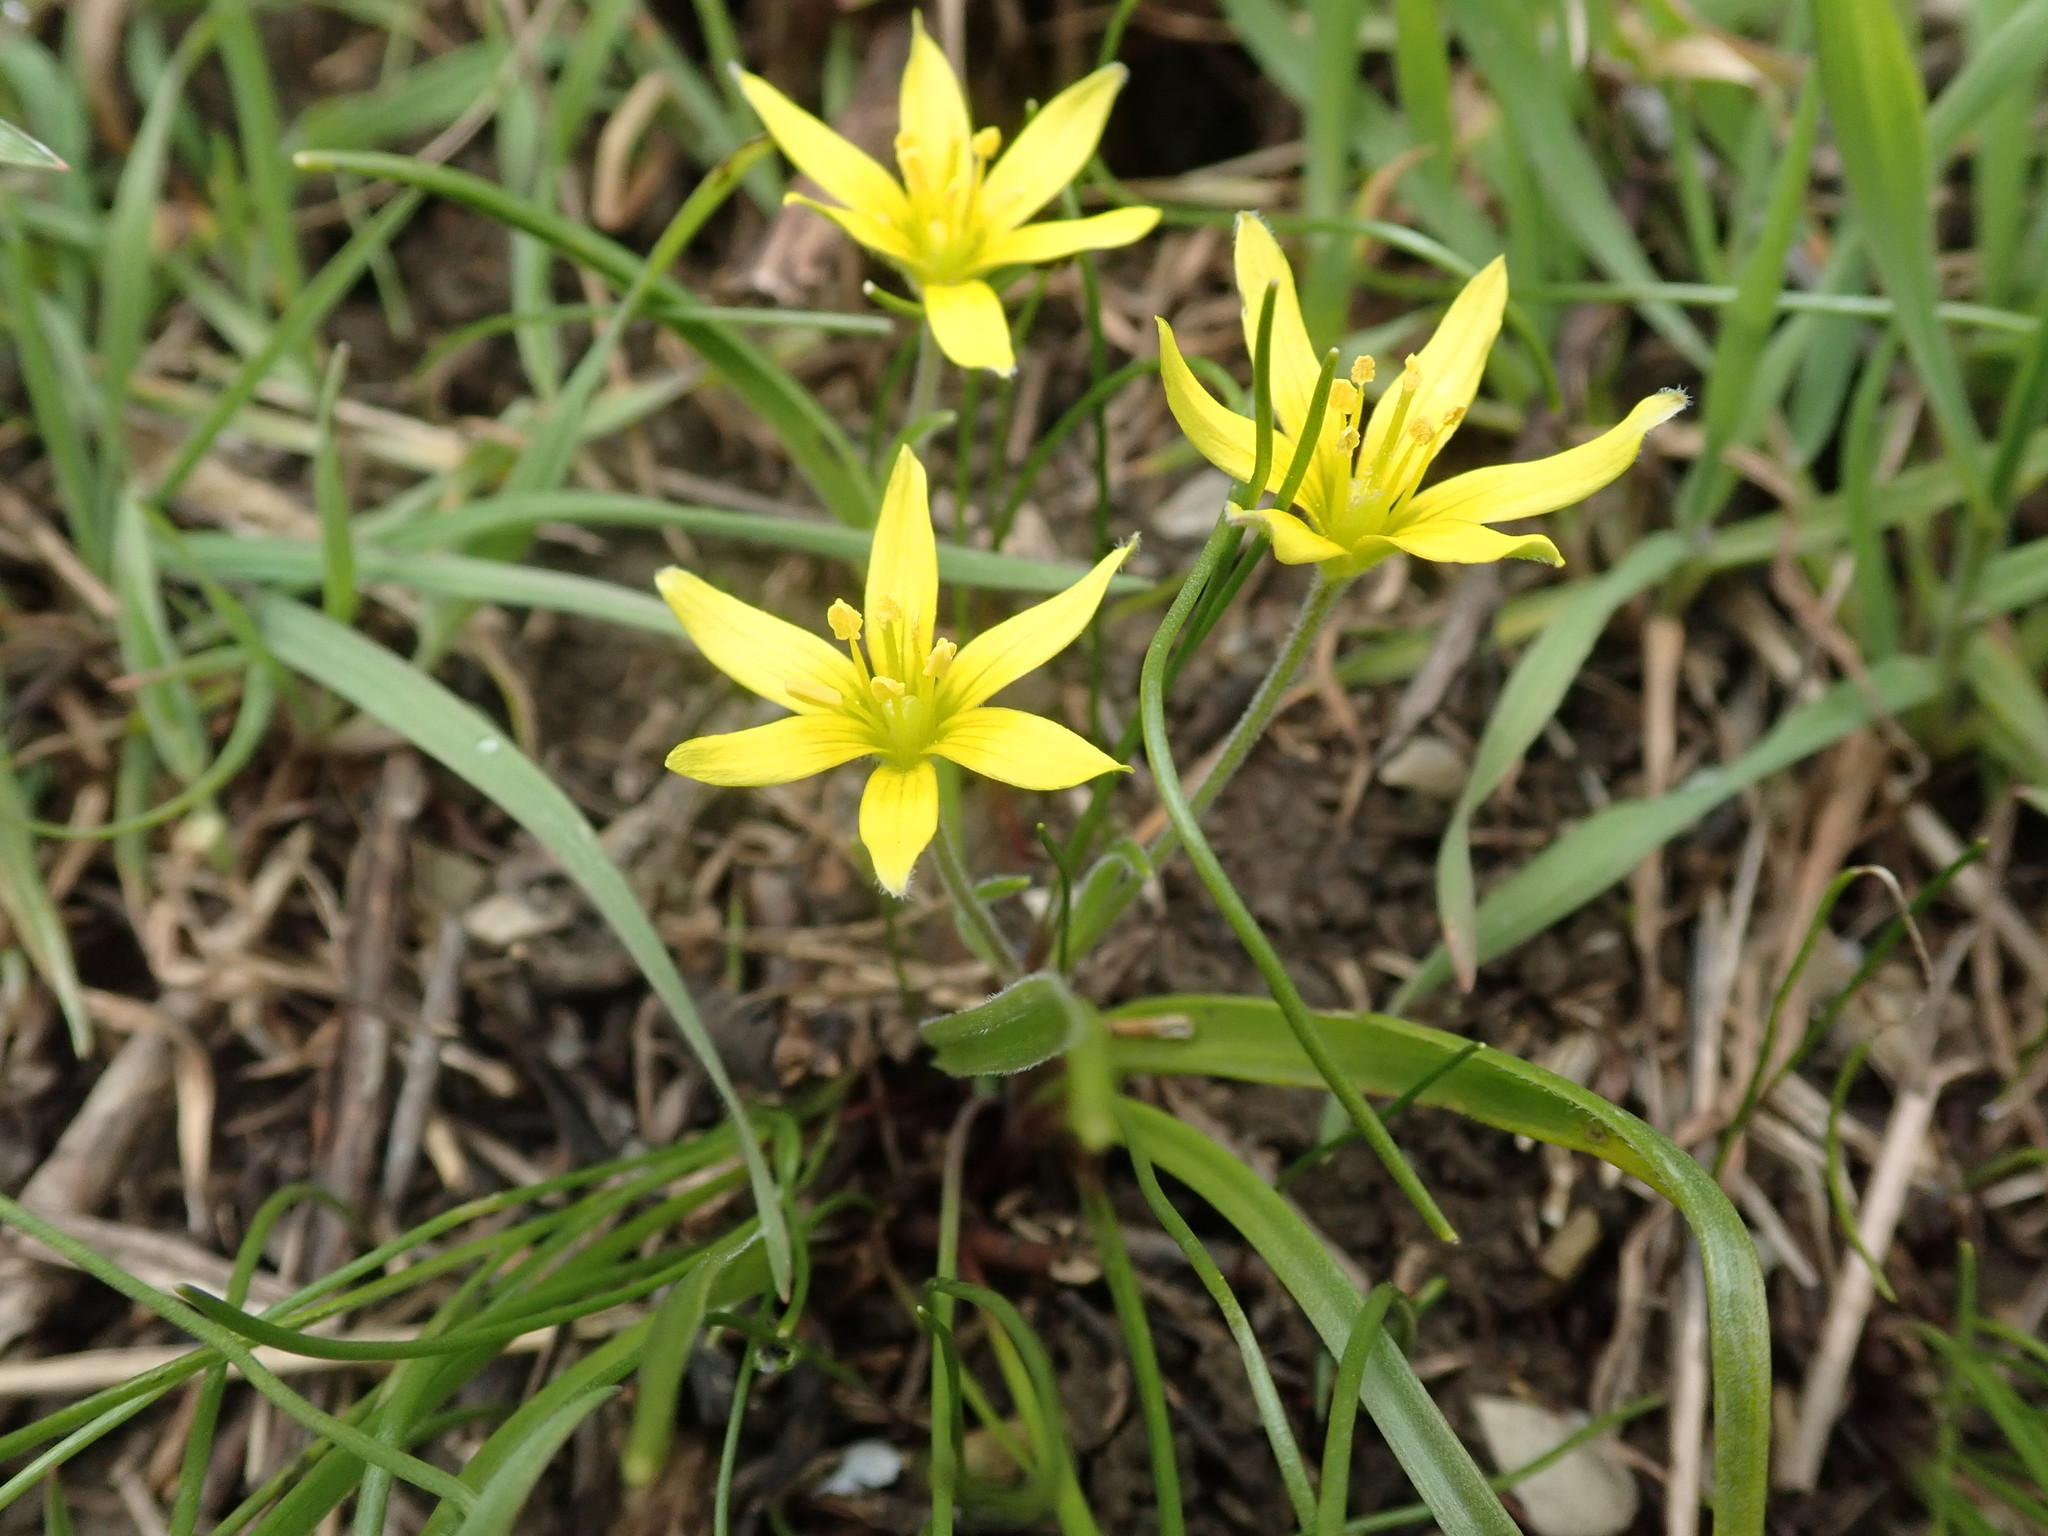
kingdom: Plantae
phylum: Tracheophyta
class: Liliopsida
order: Liliales
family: Liliaceae
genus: Gagea
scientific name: Gagea villosa
